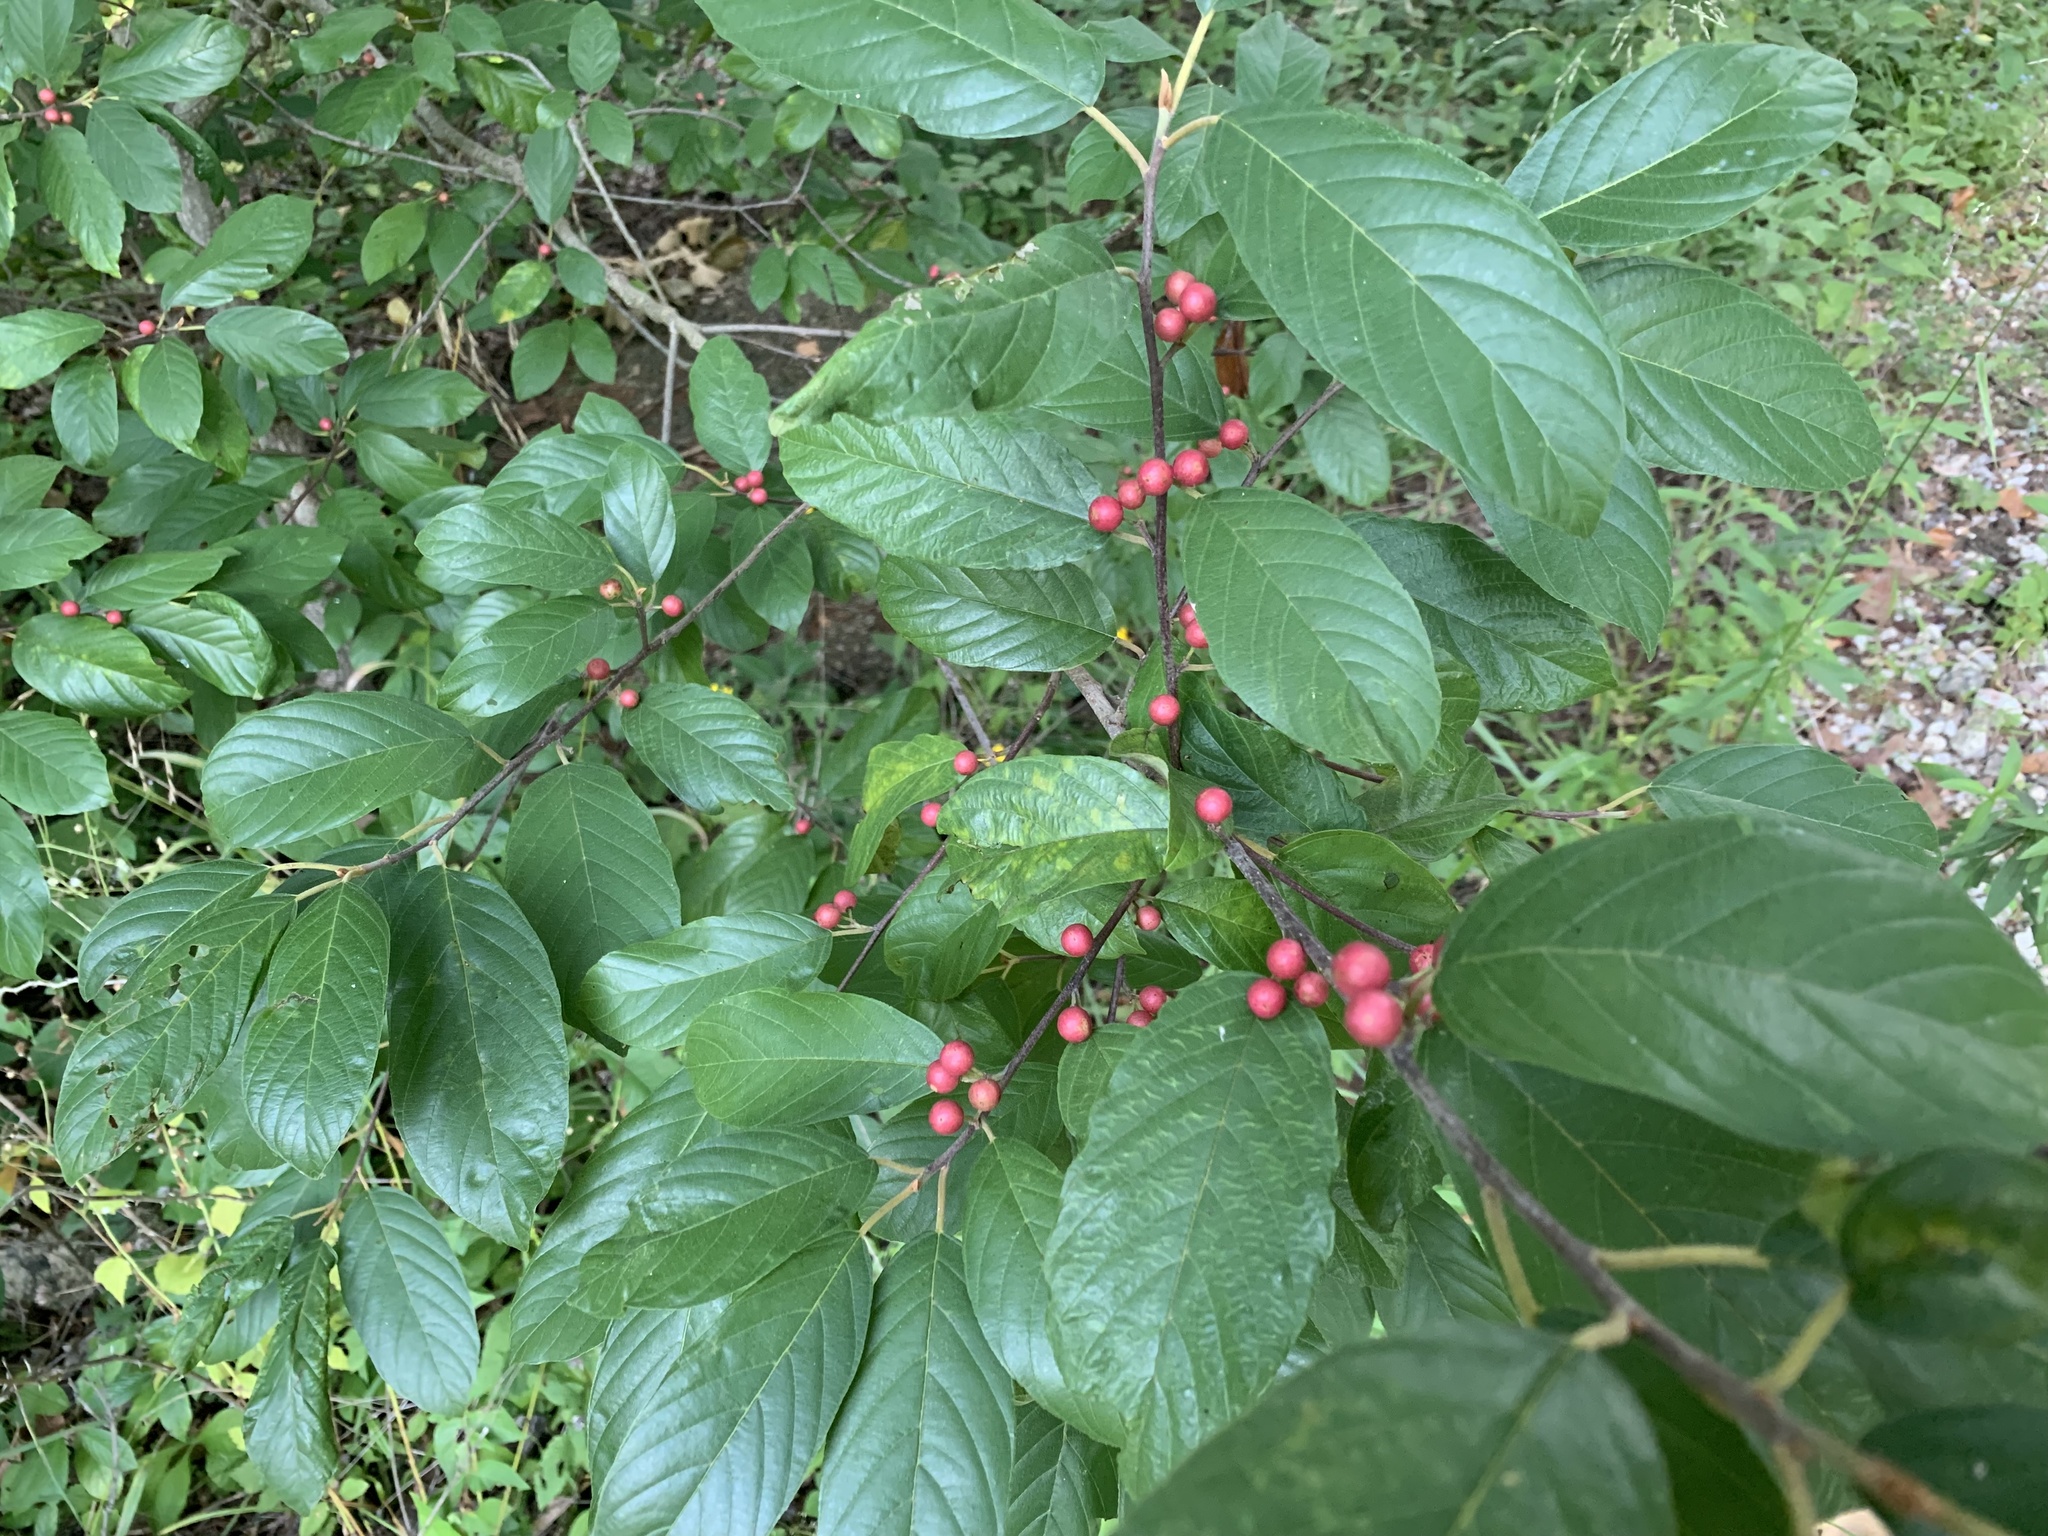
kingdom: Plantae
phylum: Tracheophyta
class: Magnoliopsida
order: Rosales
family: Rhamnaceae
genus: Frangula
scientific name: Frangula caroliniana
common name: Carolina buckthorn
